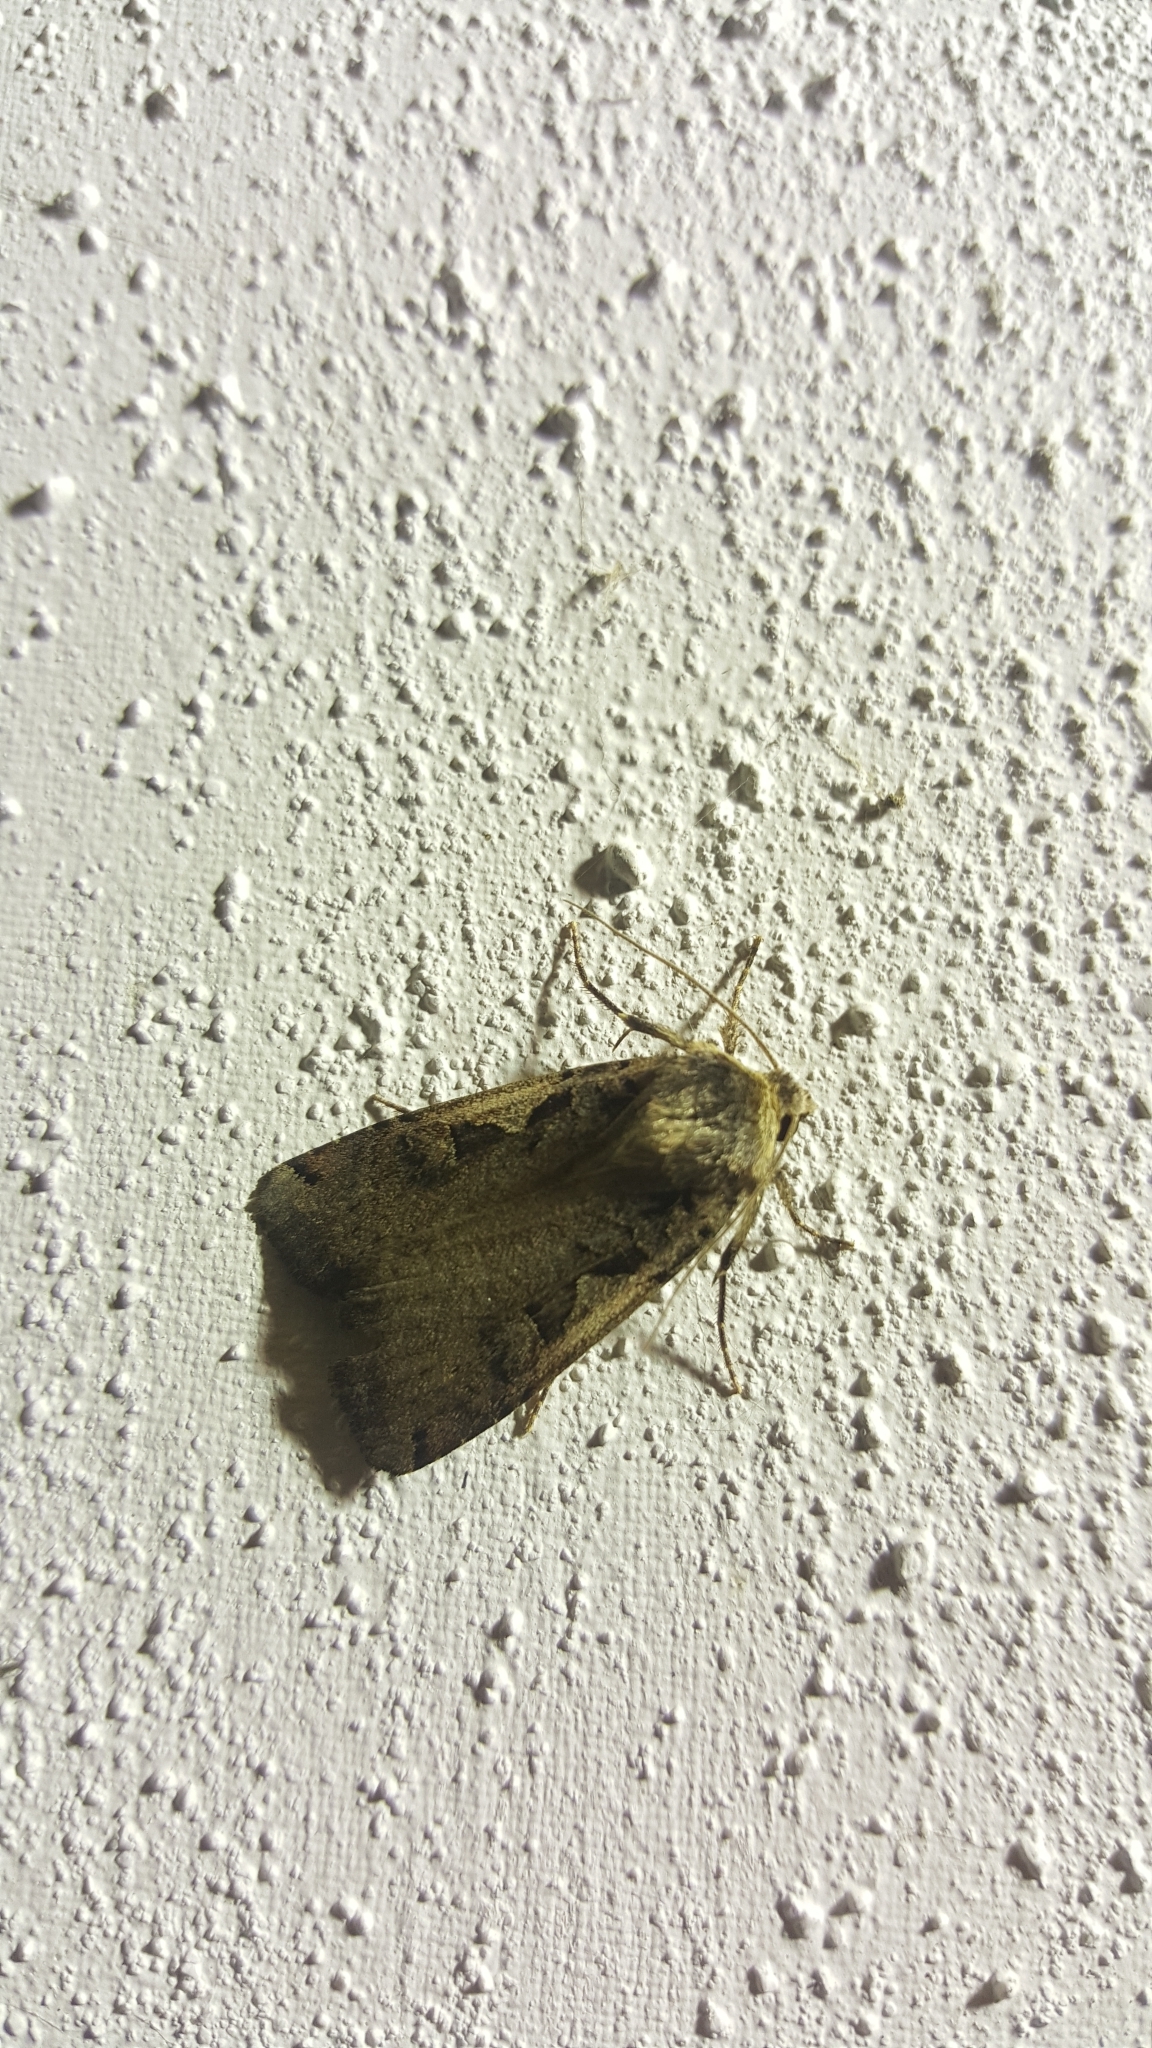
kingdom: Animalia
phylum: Arthropoda
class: Insecta
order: Lepidoptera
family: Noctuidae
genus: Xestia
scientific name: Xestia c-nigrum
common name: Setaceous hebrew character
